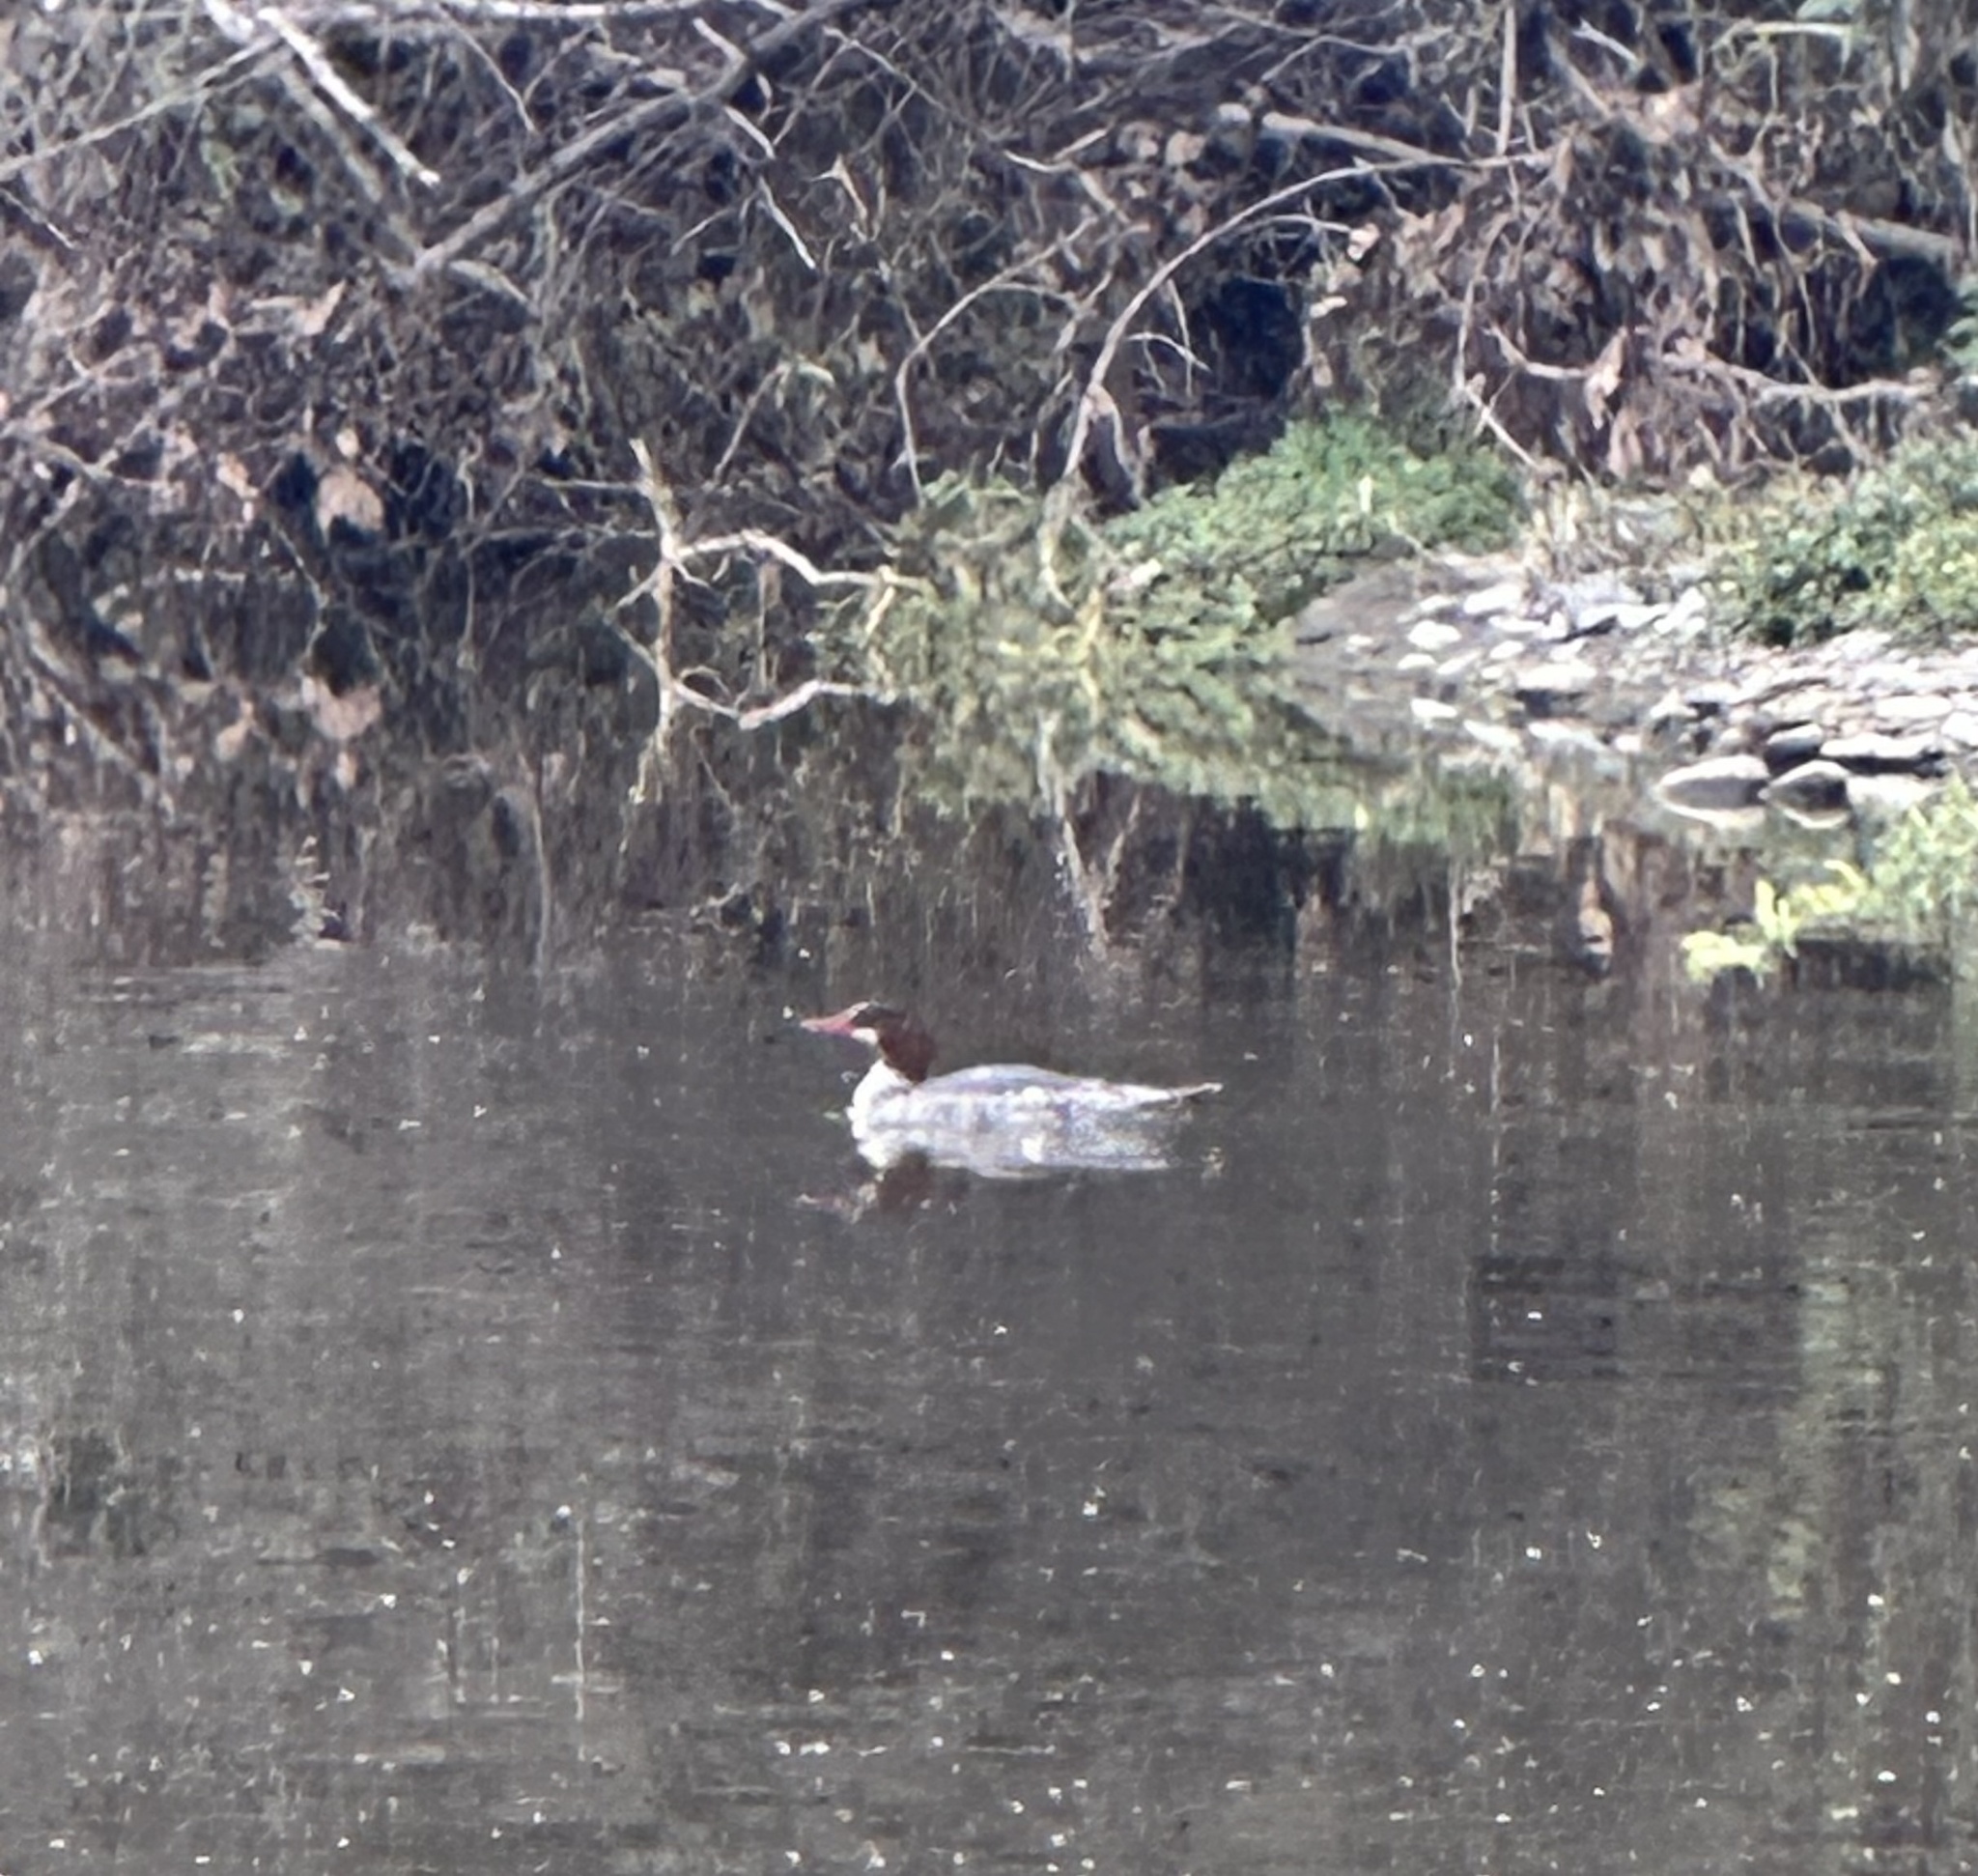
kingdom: Animalia
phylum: Chordata
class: Aves
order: Anseriformes
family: Anatidae
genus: Mergus
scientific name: Mergus merganser
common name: Common merganser
